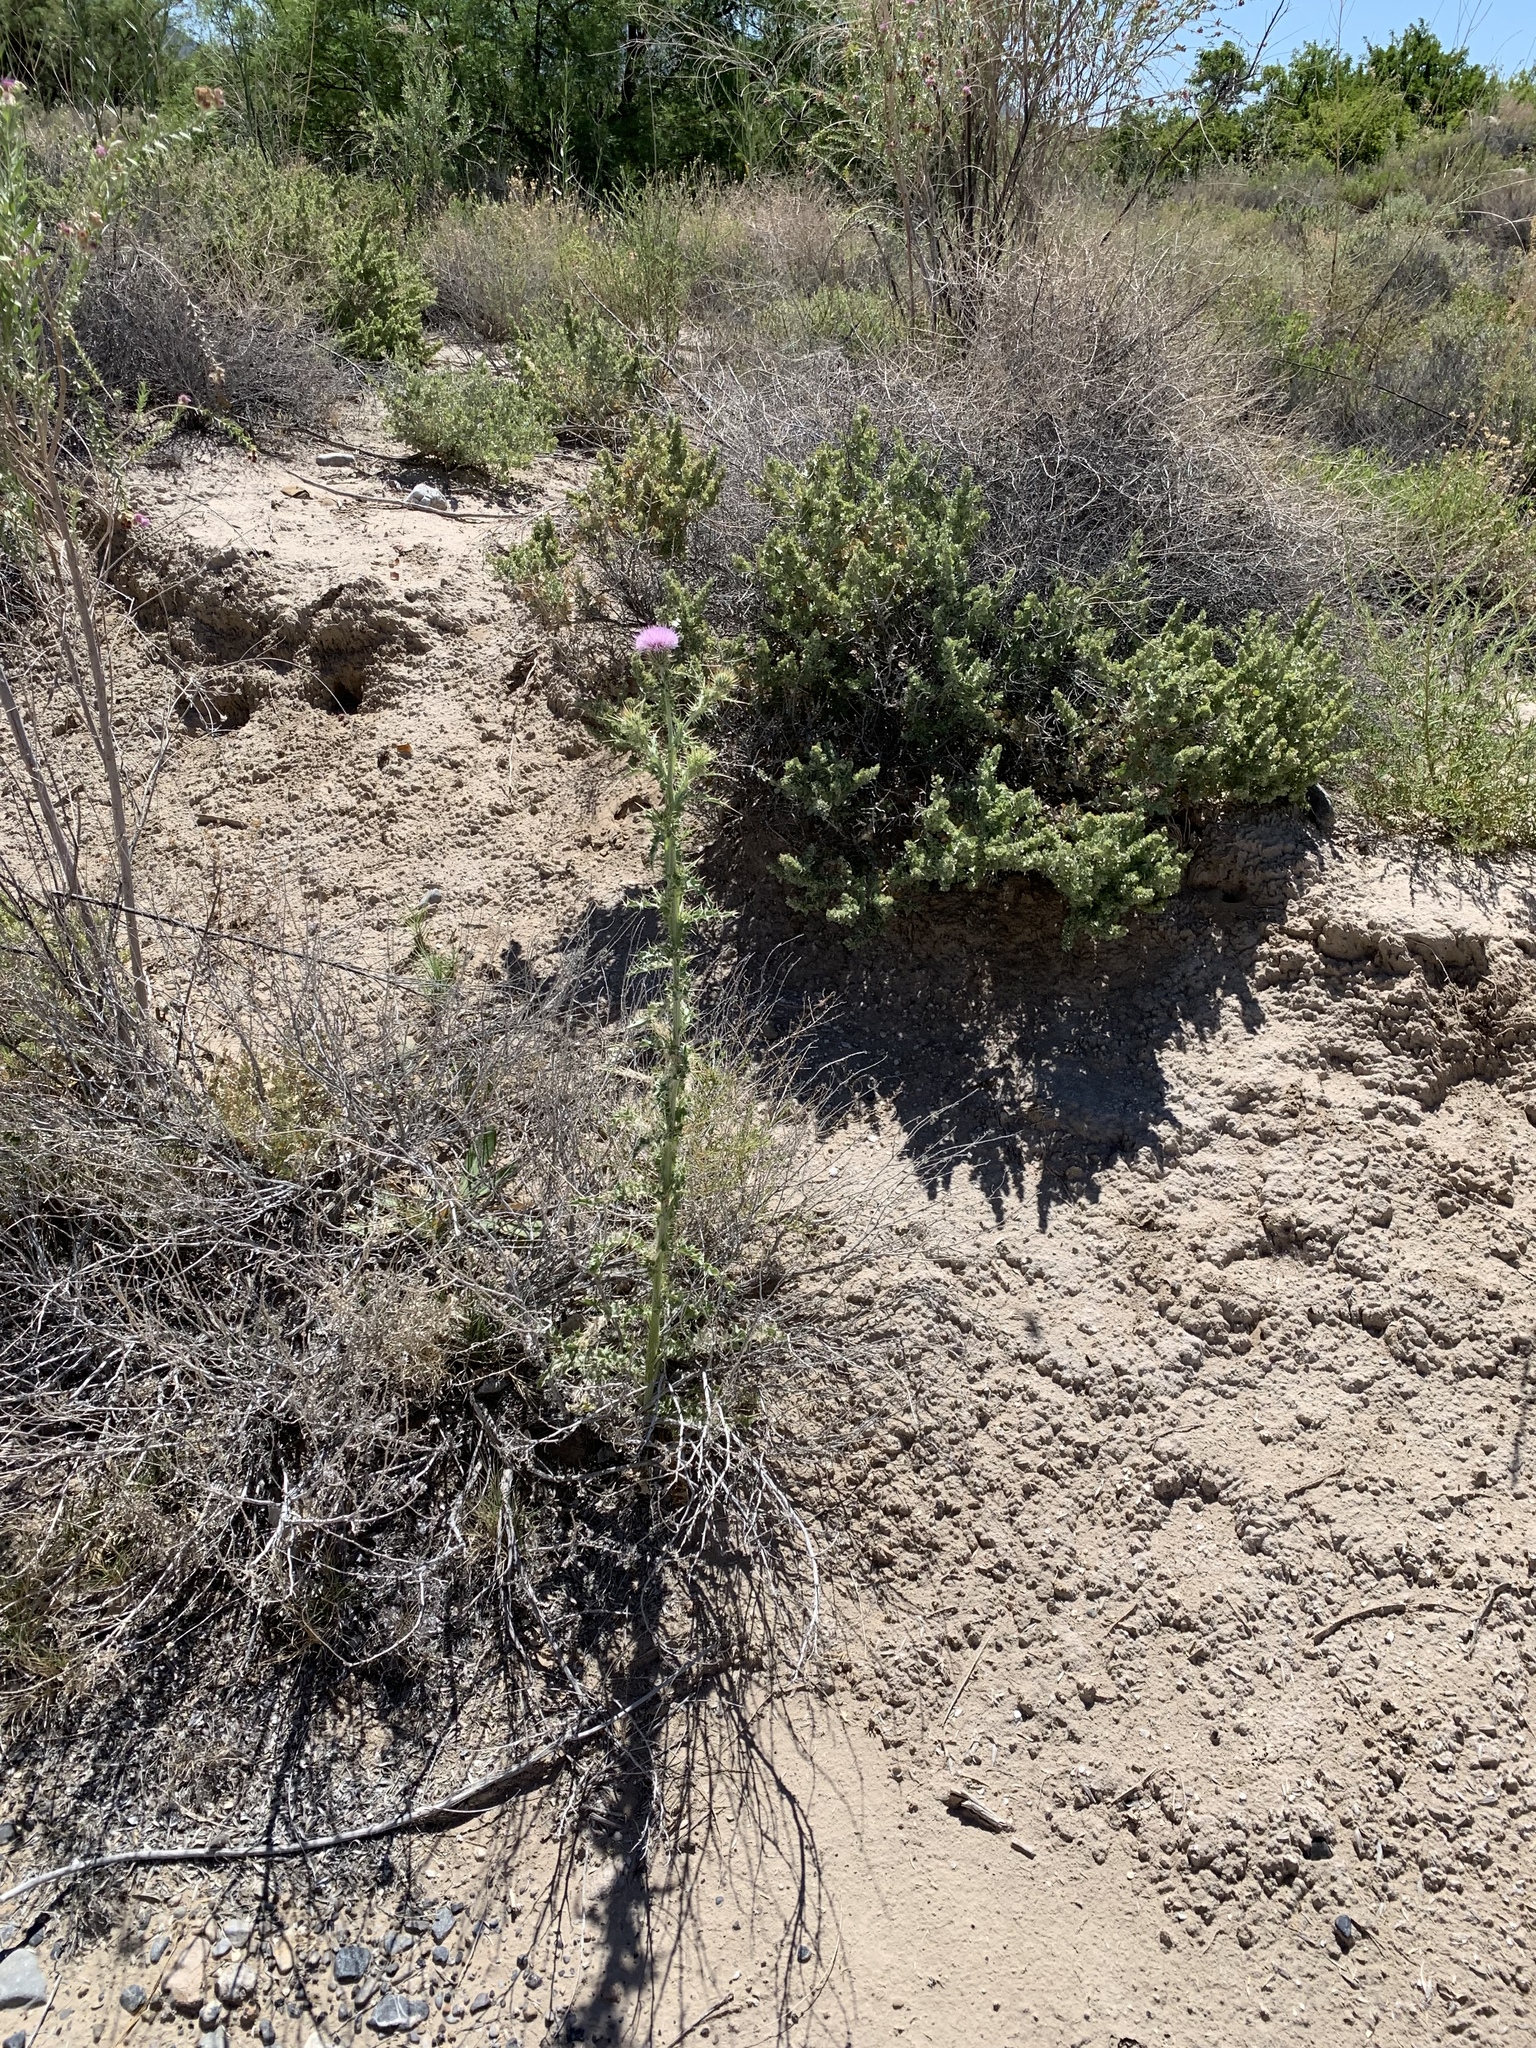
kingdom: Plantae
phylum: Tracheophyta
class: Magnoliopsida
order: Asterales
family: Asteraceae
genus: Cirsium
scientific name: Cirsium mohavense
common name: Mojave thistle
